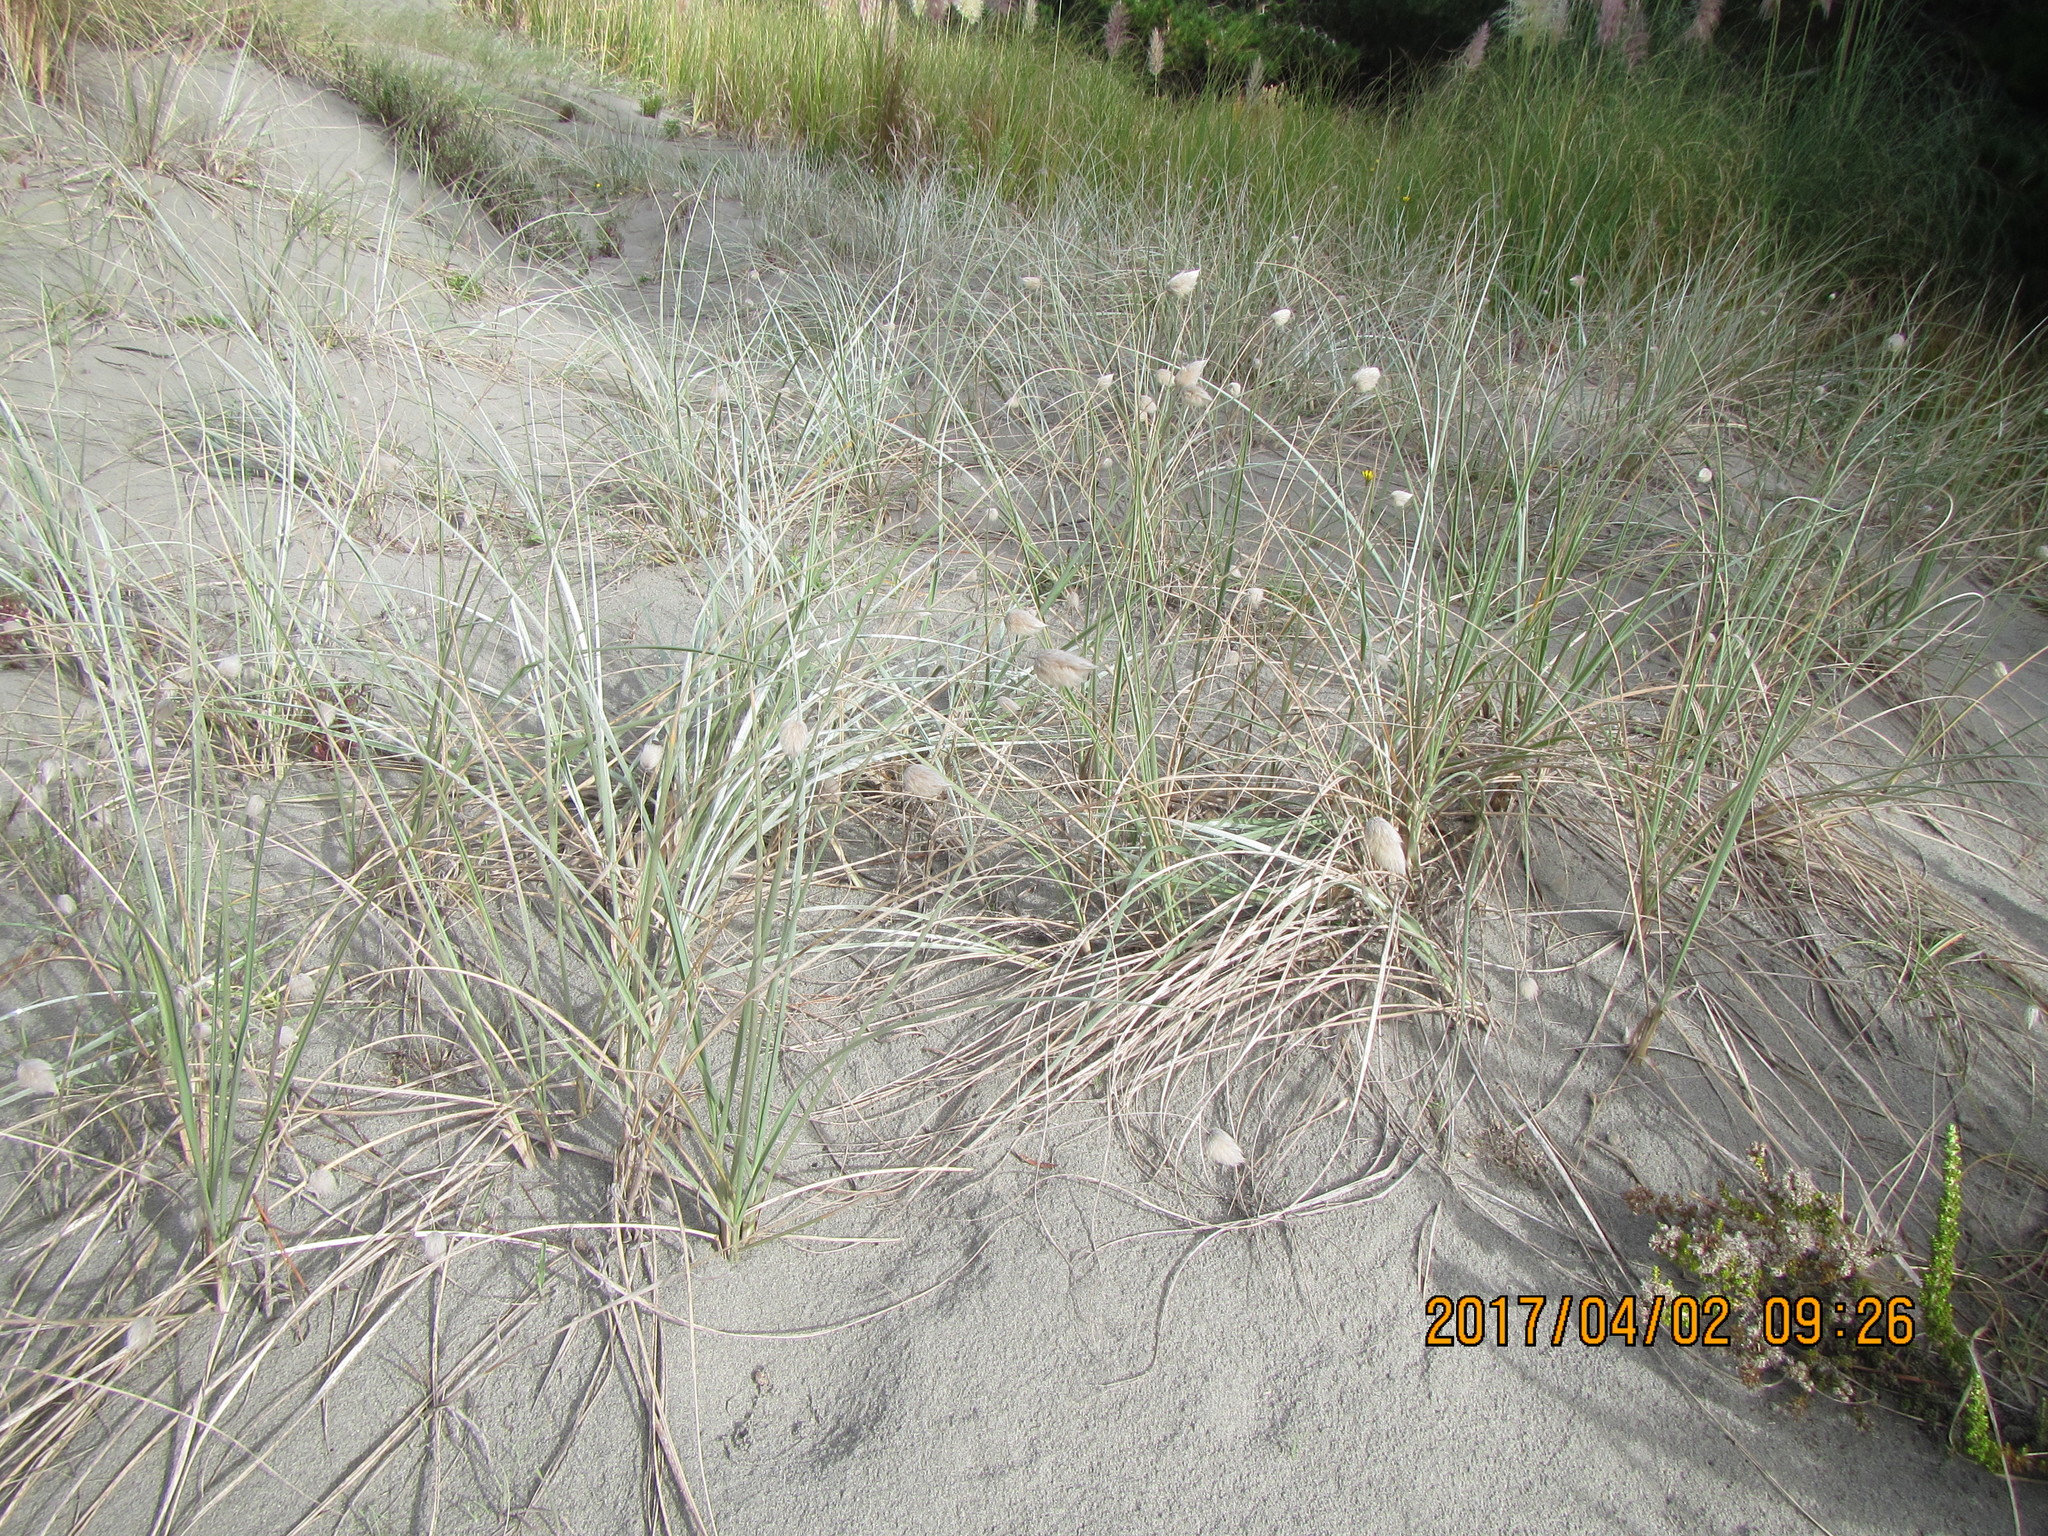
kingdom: Plantae
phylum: Tracheophyta
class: Liliopsida
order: Poales
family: Poaceae
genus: Lagurus
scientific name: Lagurus ovatus
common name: Hare's-tail
